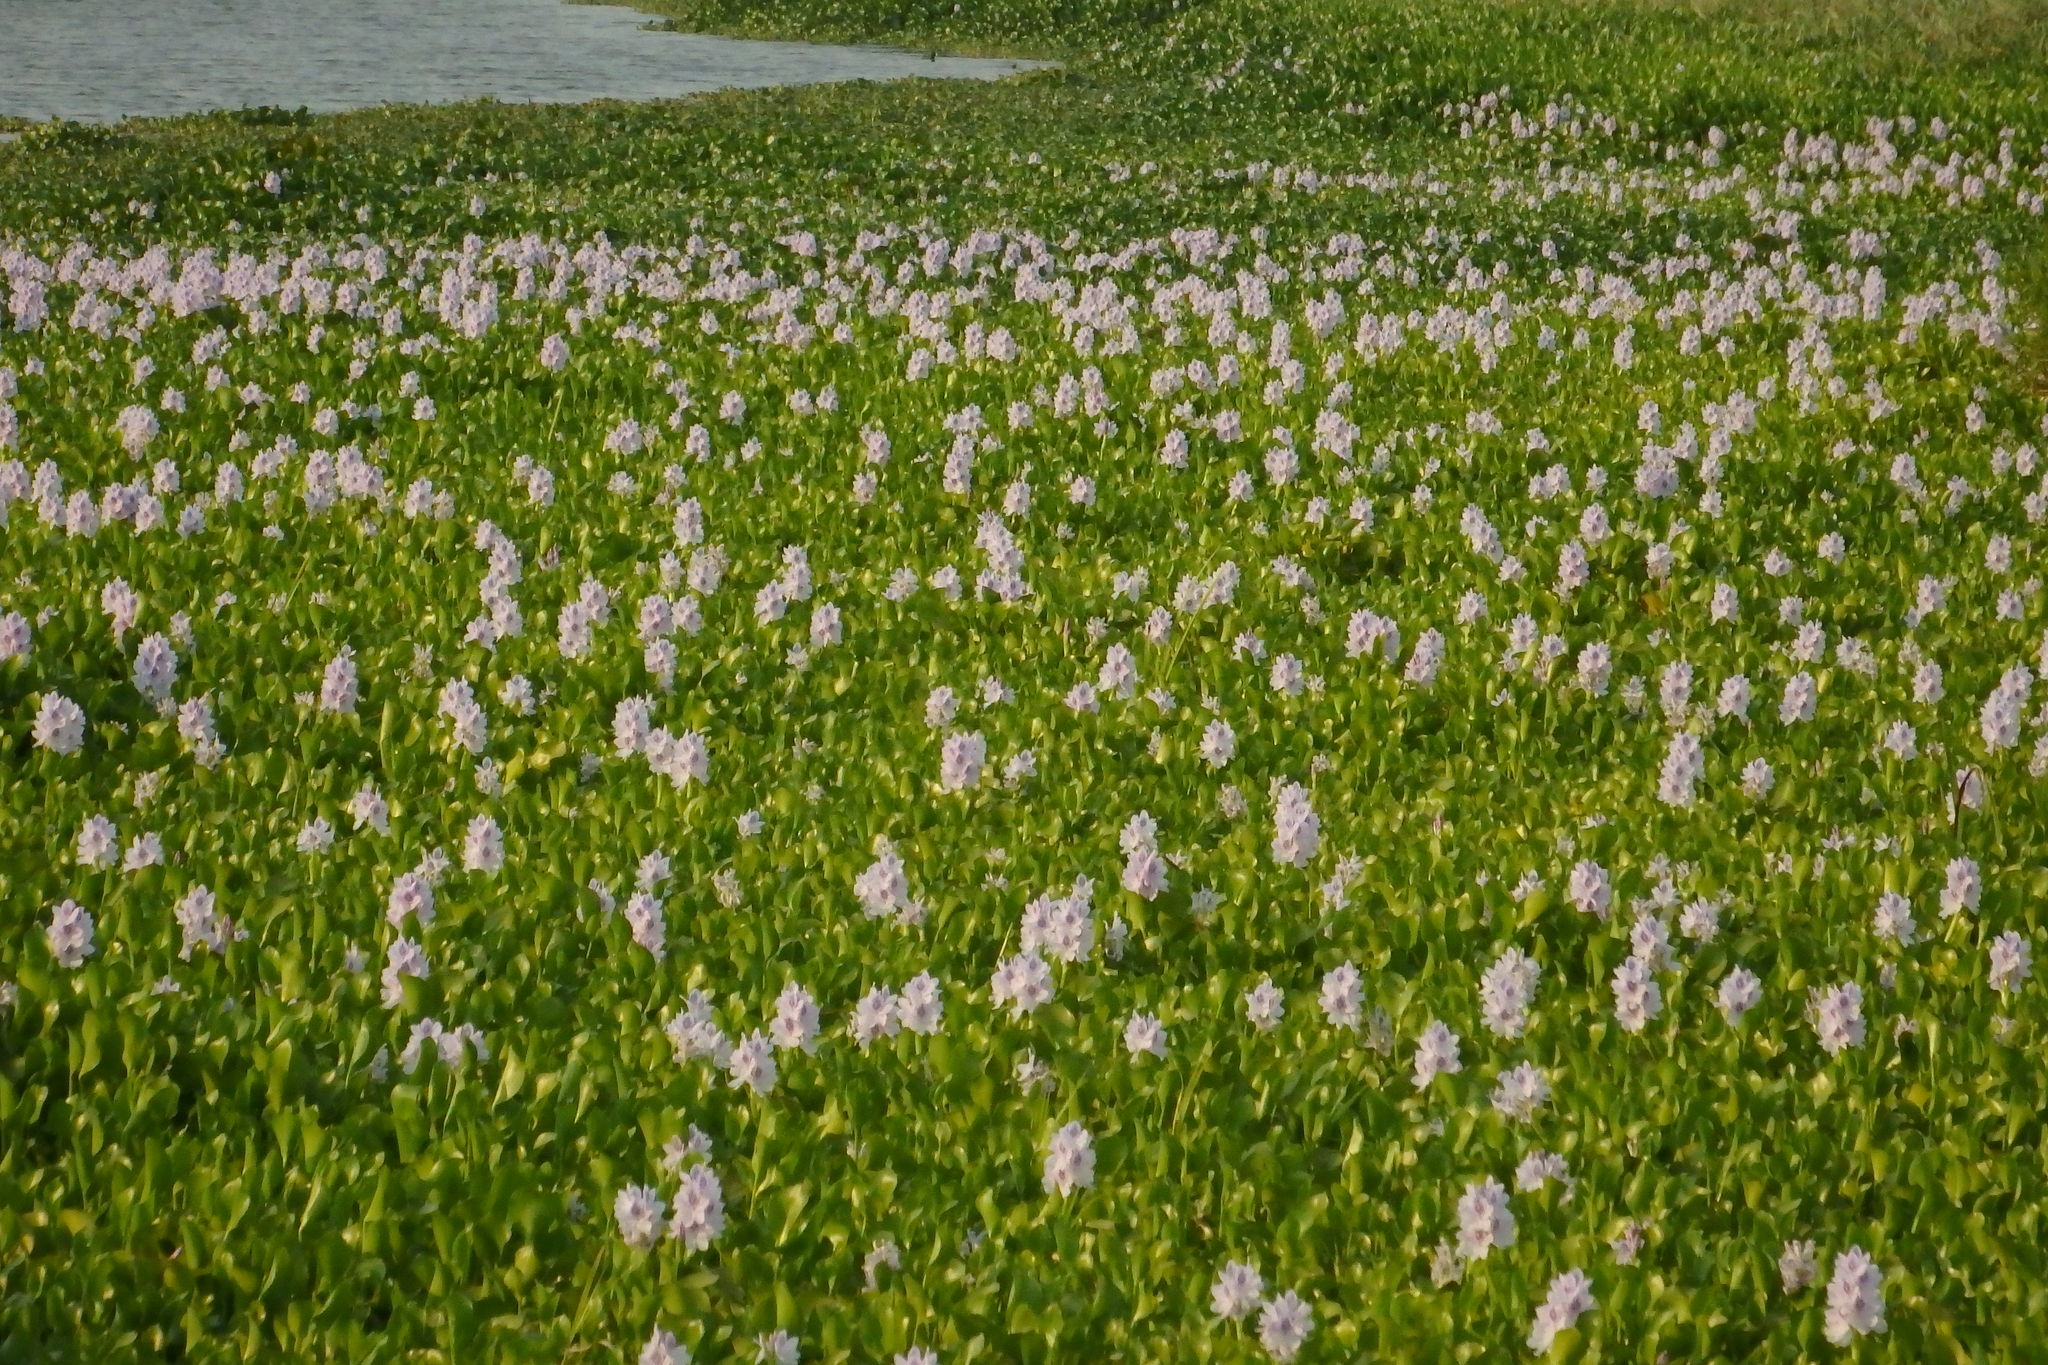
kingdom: Plantae
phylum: Tracheophyta
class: Liliopsida
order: Commelinales
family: Pontederiaceae
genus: Pontederia
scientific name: Pontederia crassipes
